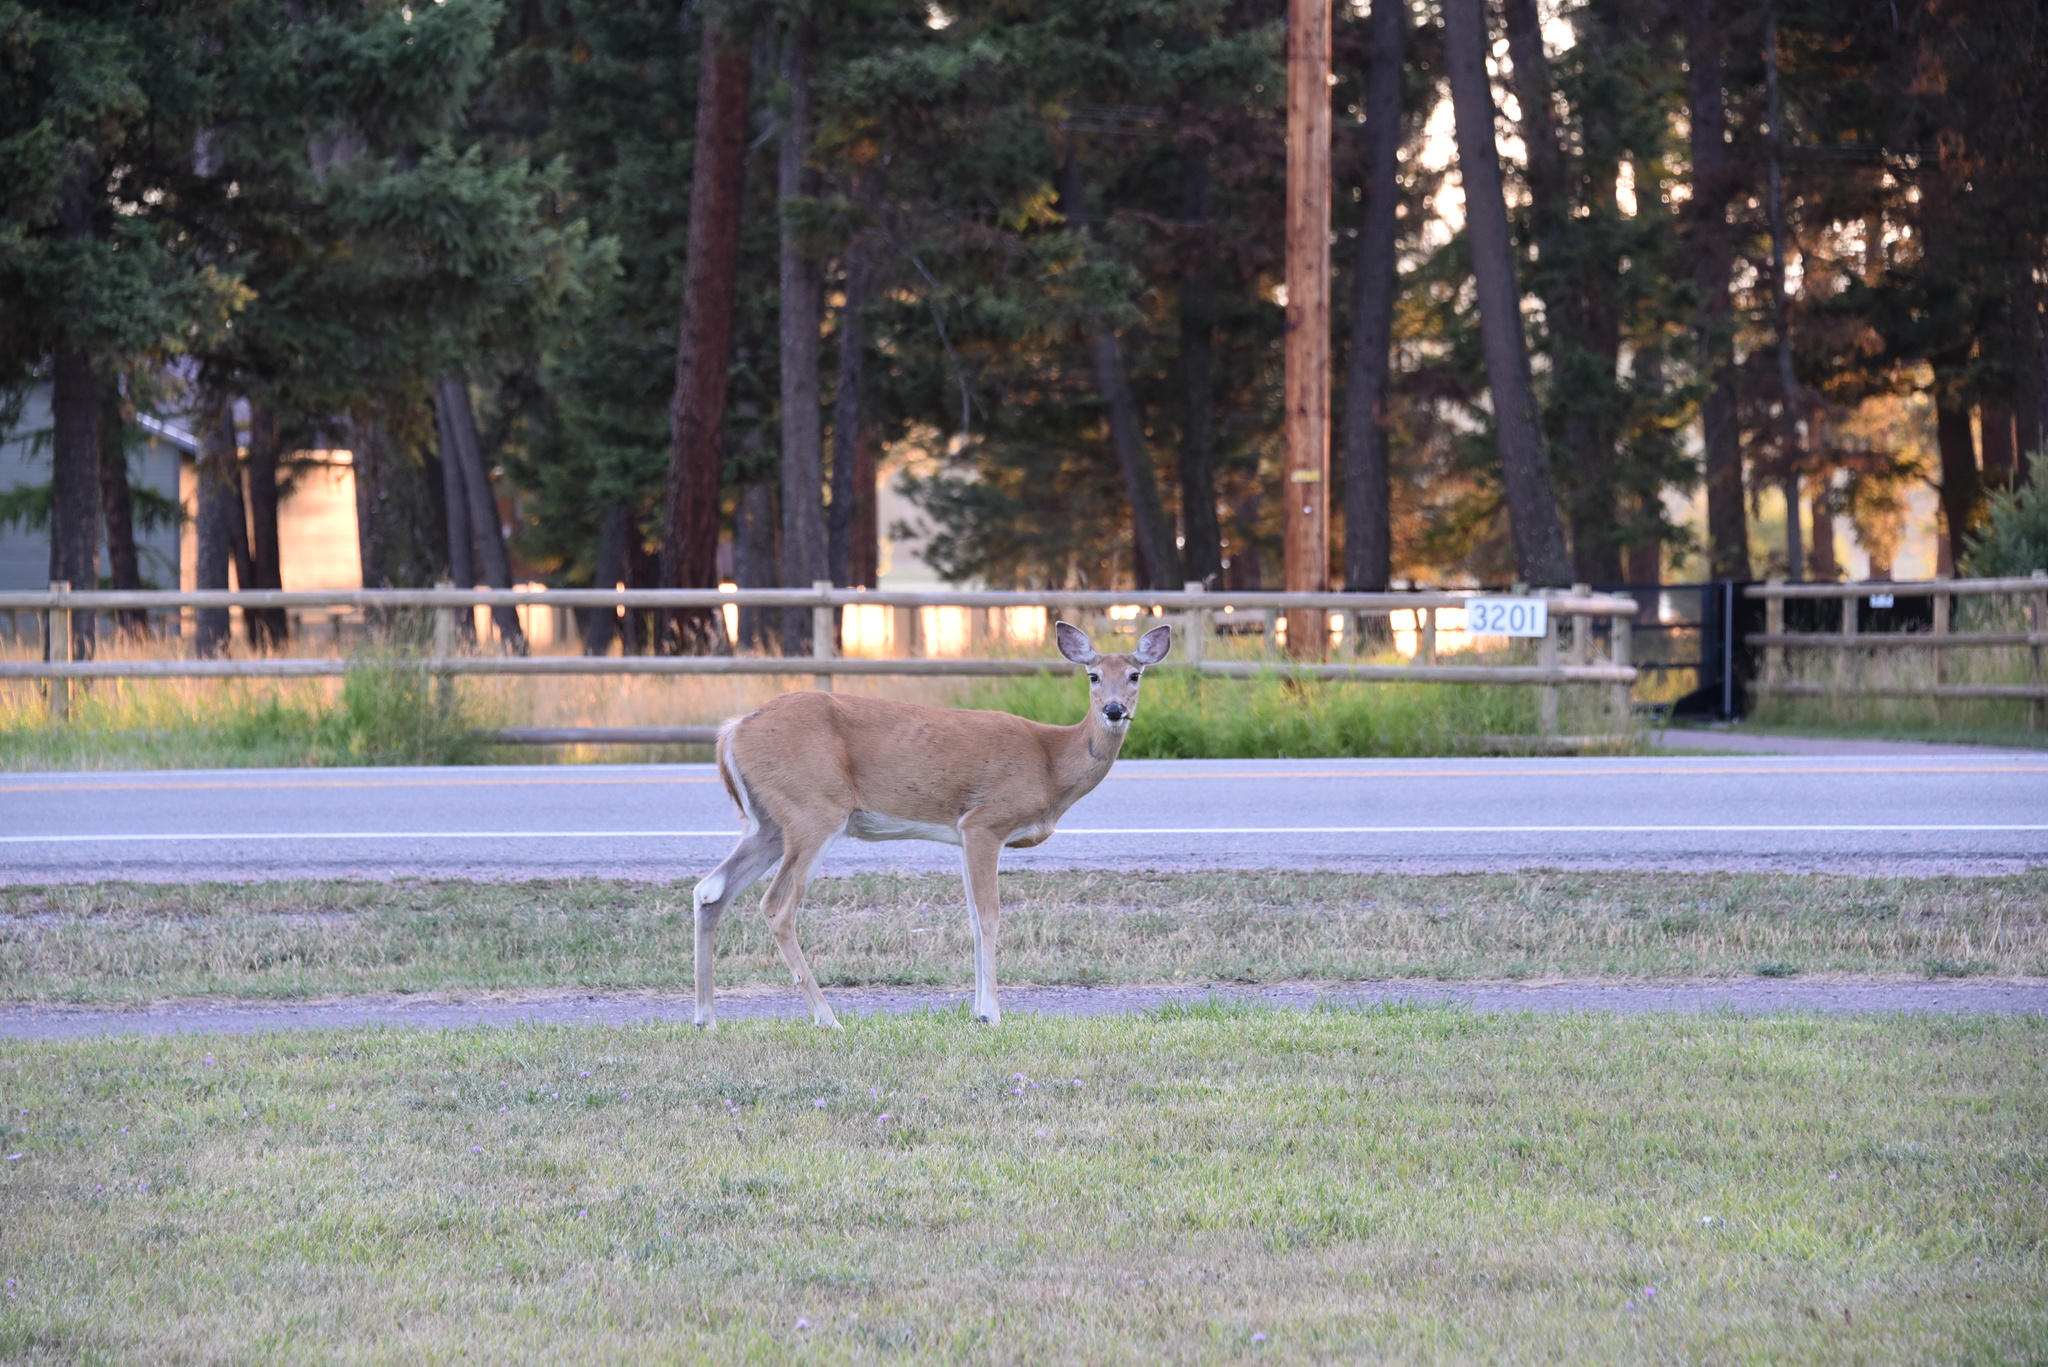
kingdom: Animalia
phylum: Chordata
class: Mammalia
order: Artiodactyla
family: Cervidae
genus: Odocoileus
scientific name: Odocoileus virginianus
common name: White-tailed deer
